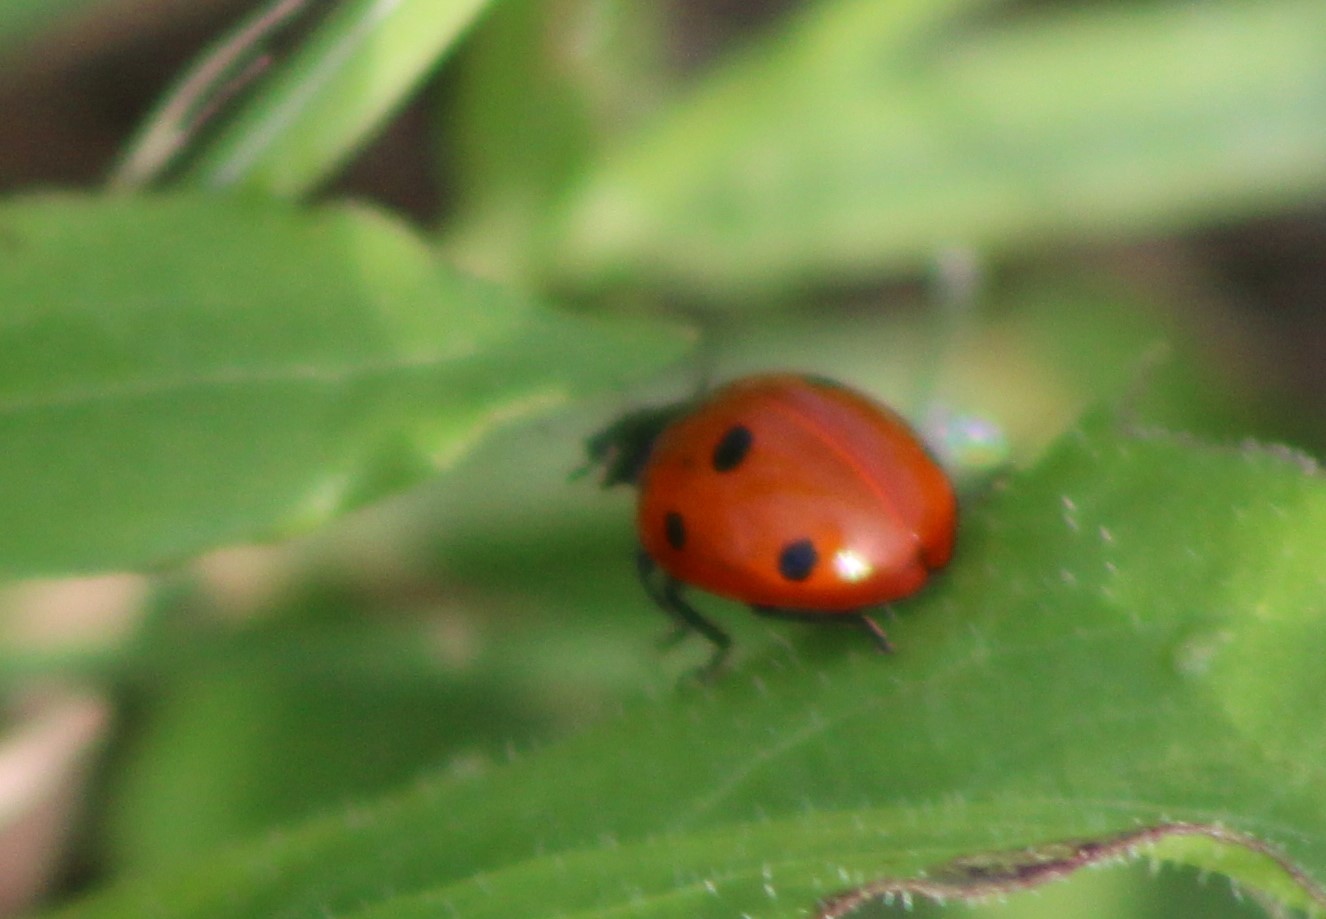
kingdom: Animalia
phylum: Arthropoda
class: Insecta
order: Coleoptera
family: Coccinellidae
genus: Coccinella
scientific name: Coccinella septempunctata
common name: Sevenspotted lady beetle
